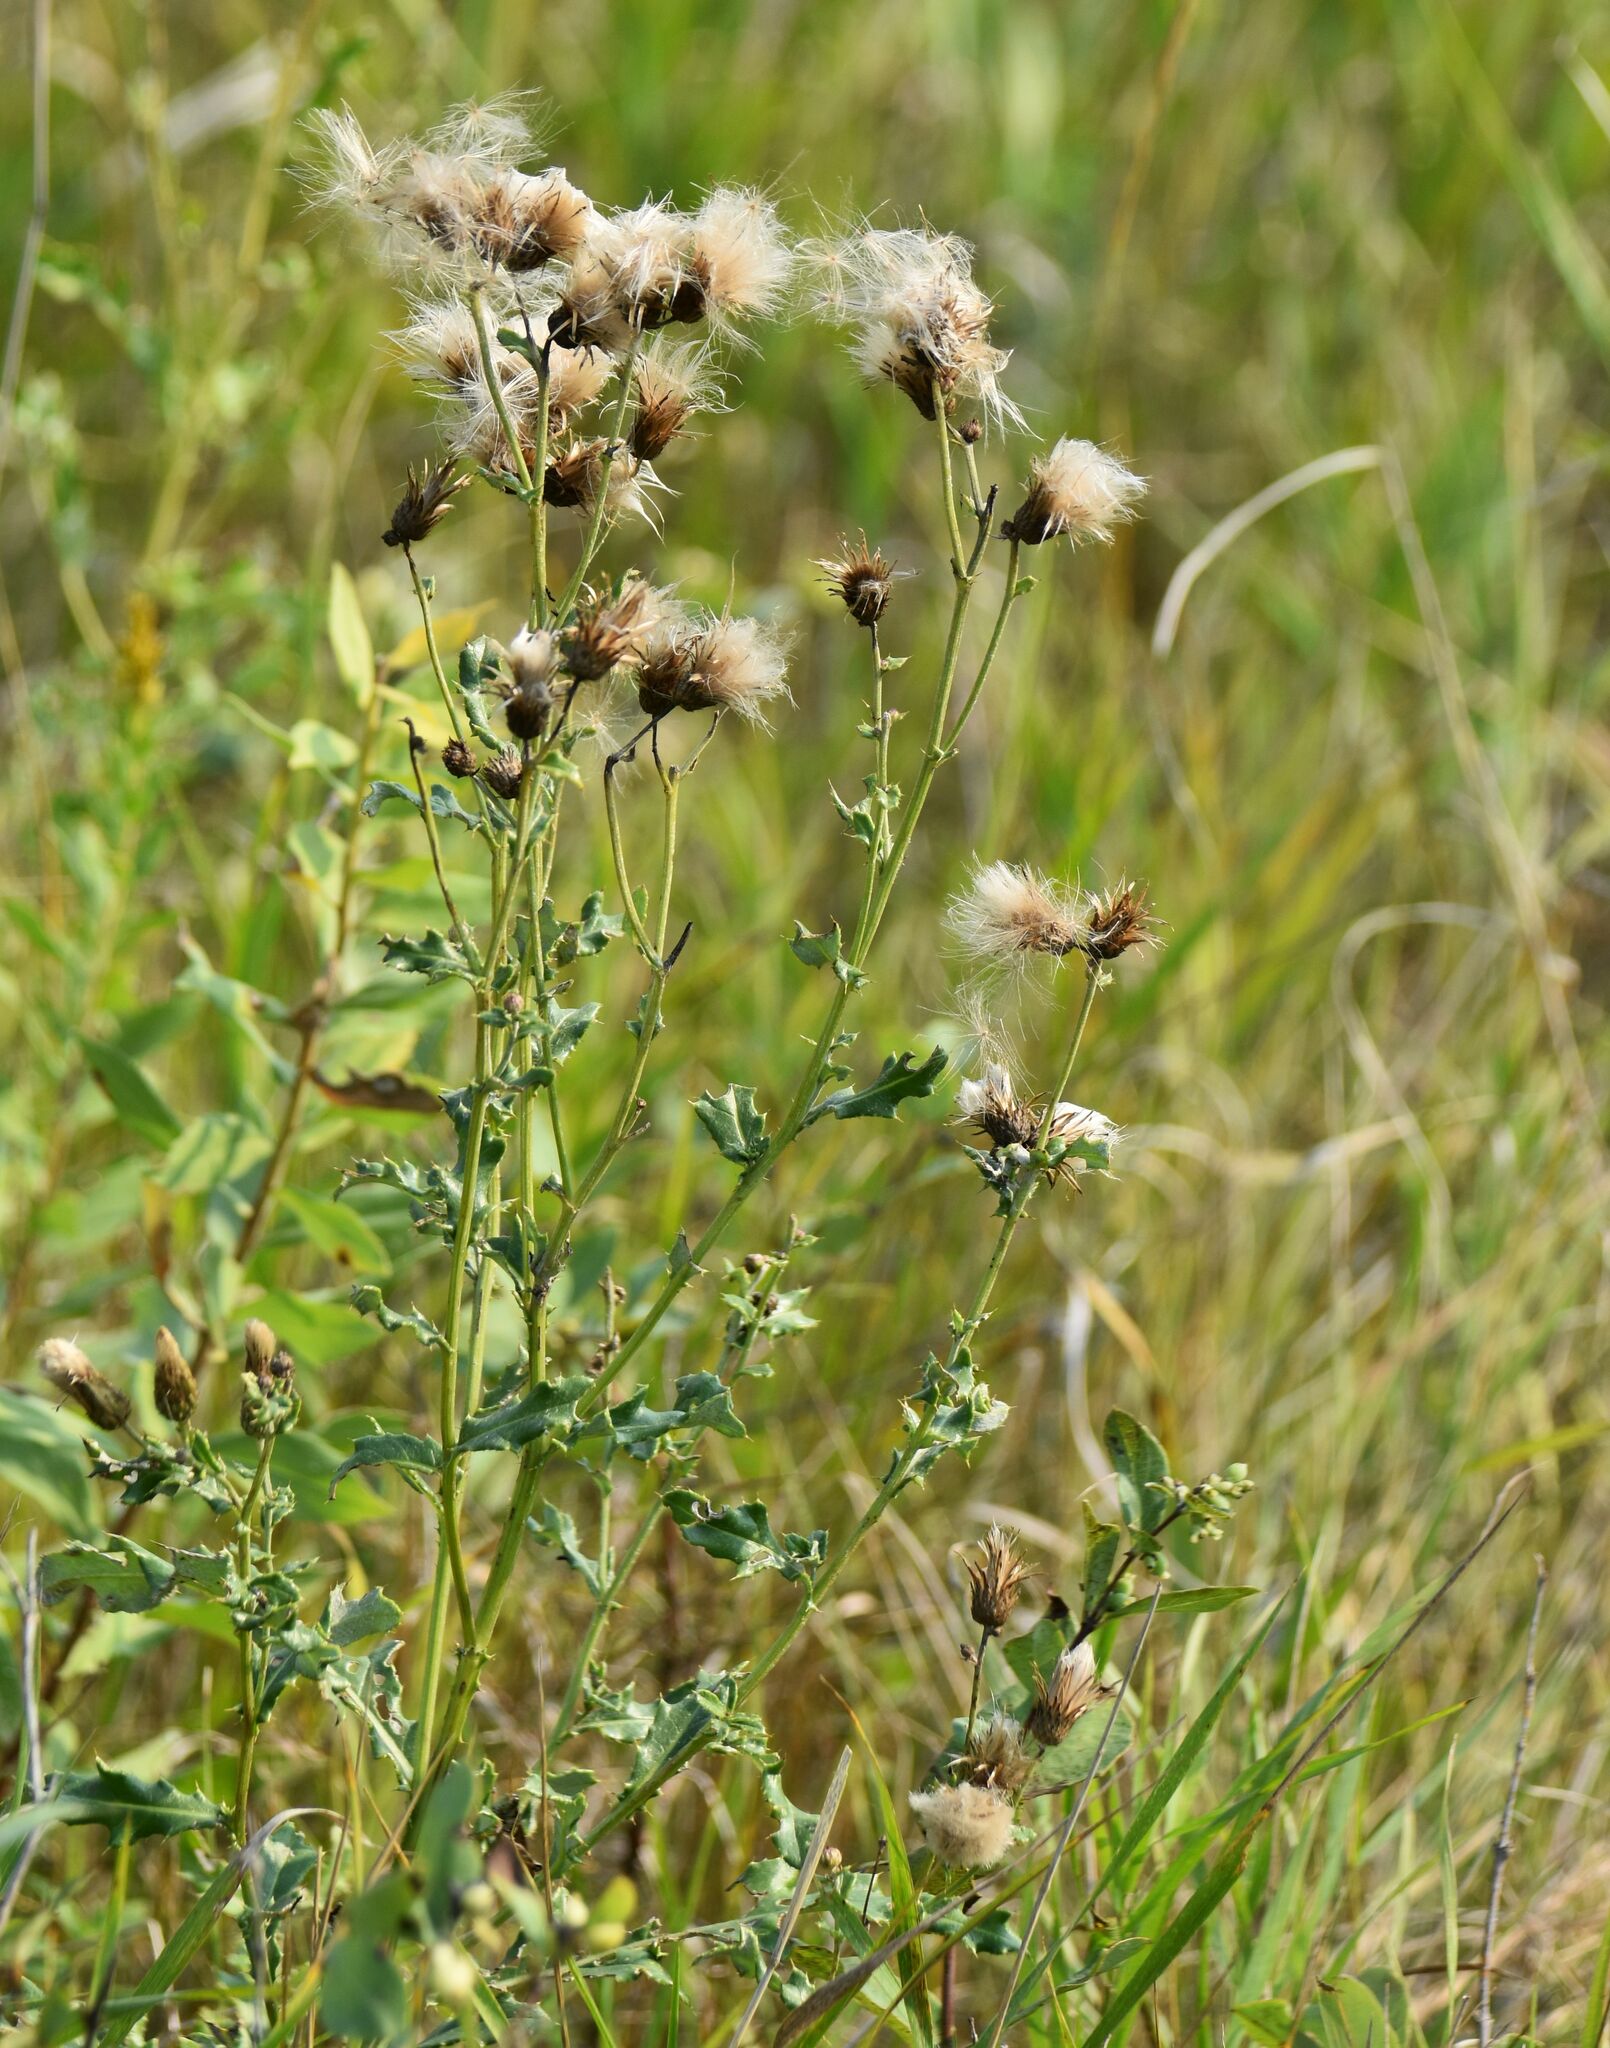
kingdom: Plantae
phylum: Tracheophyta
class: Magnoliopsida
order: Asterales
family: Asteraceae
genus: Cirsium
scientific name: Cirsium arvense
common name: Creeping thistle
